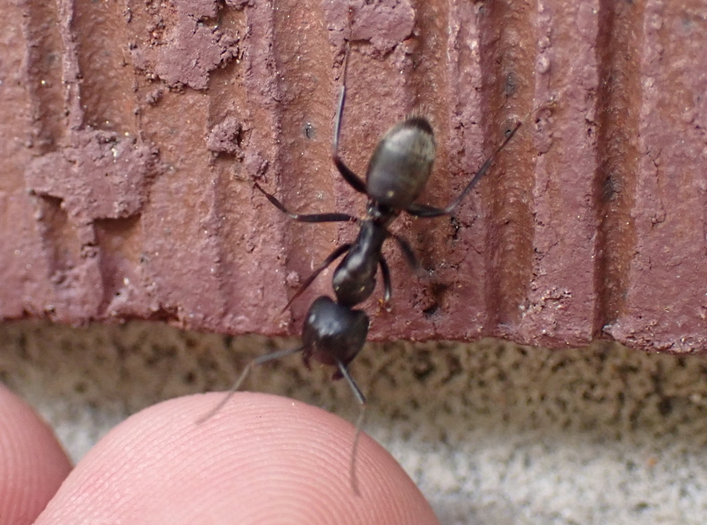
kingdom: Animalia
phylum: Arthropoda
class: Insecta
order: Hymenoptera
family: Formicidae
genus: Camponotus
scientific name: Camponotus pennsylvanicus
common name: Black carpenter ant
